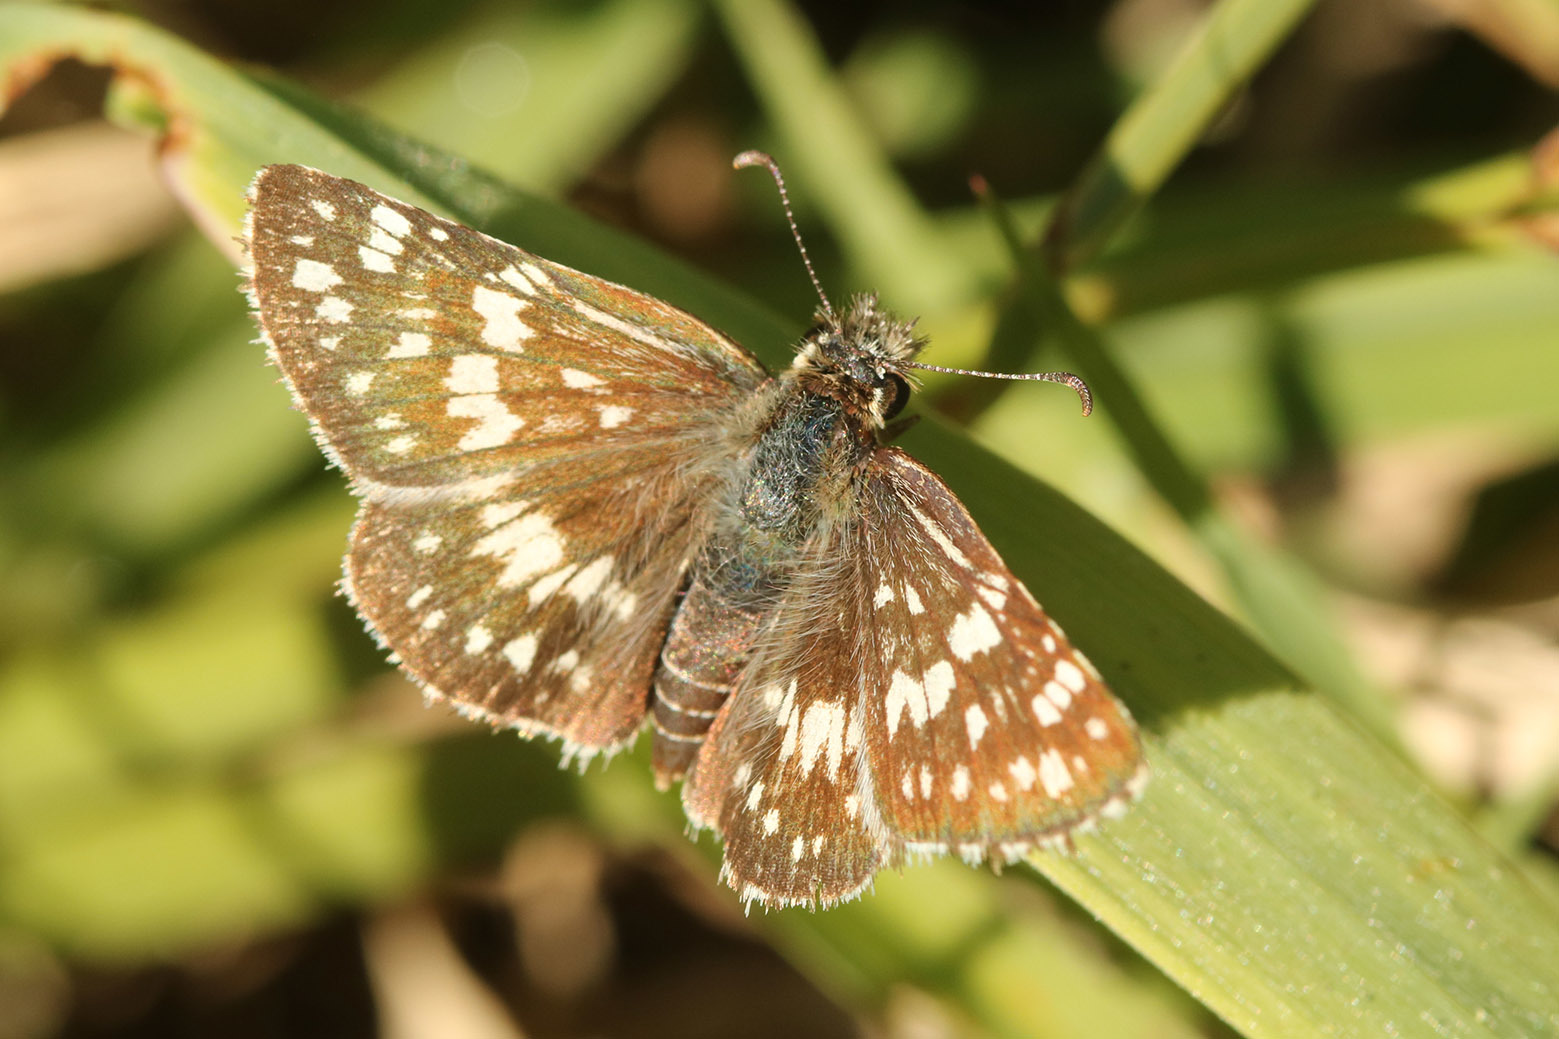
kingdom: Animalia
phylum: Arthropoda
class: Insecta
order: Lepidoptera
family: Hesperiidae
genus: Burnsius
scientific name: Burnsius orcynoides
